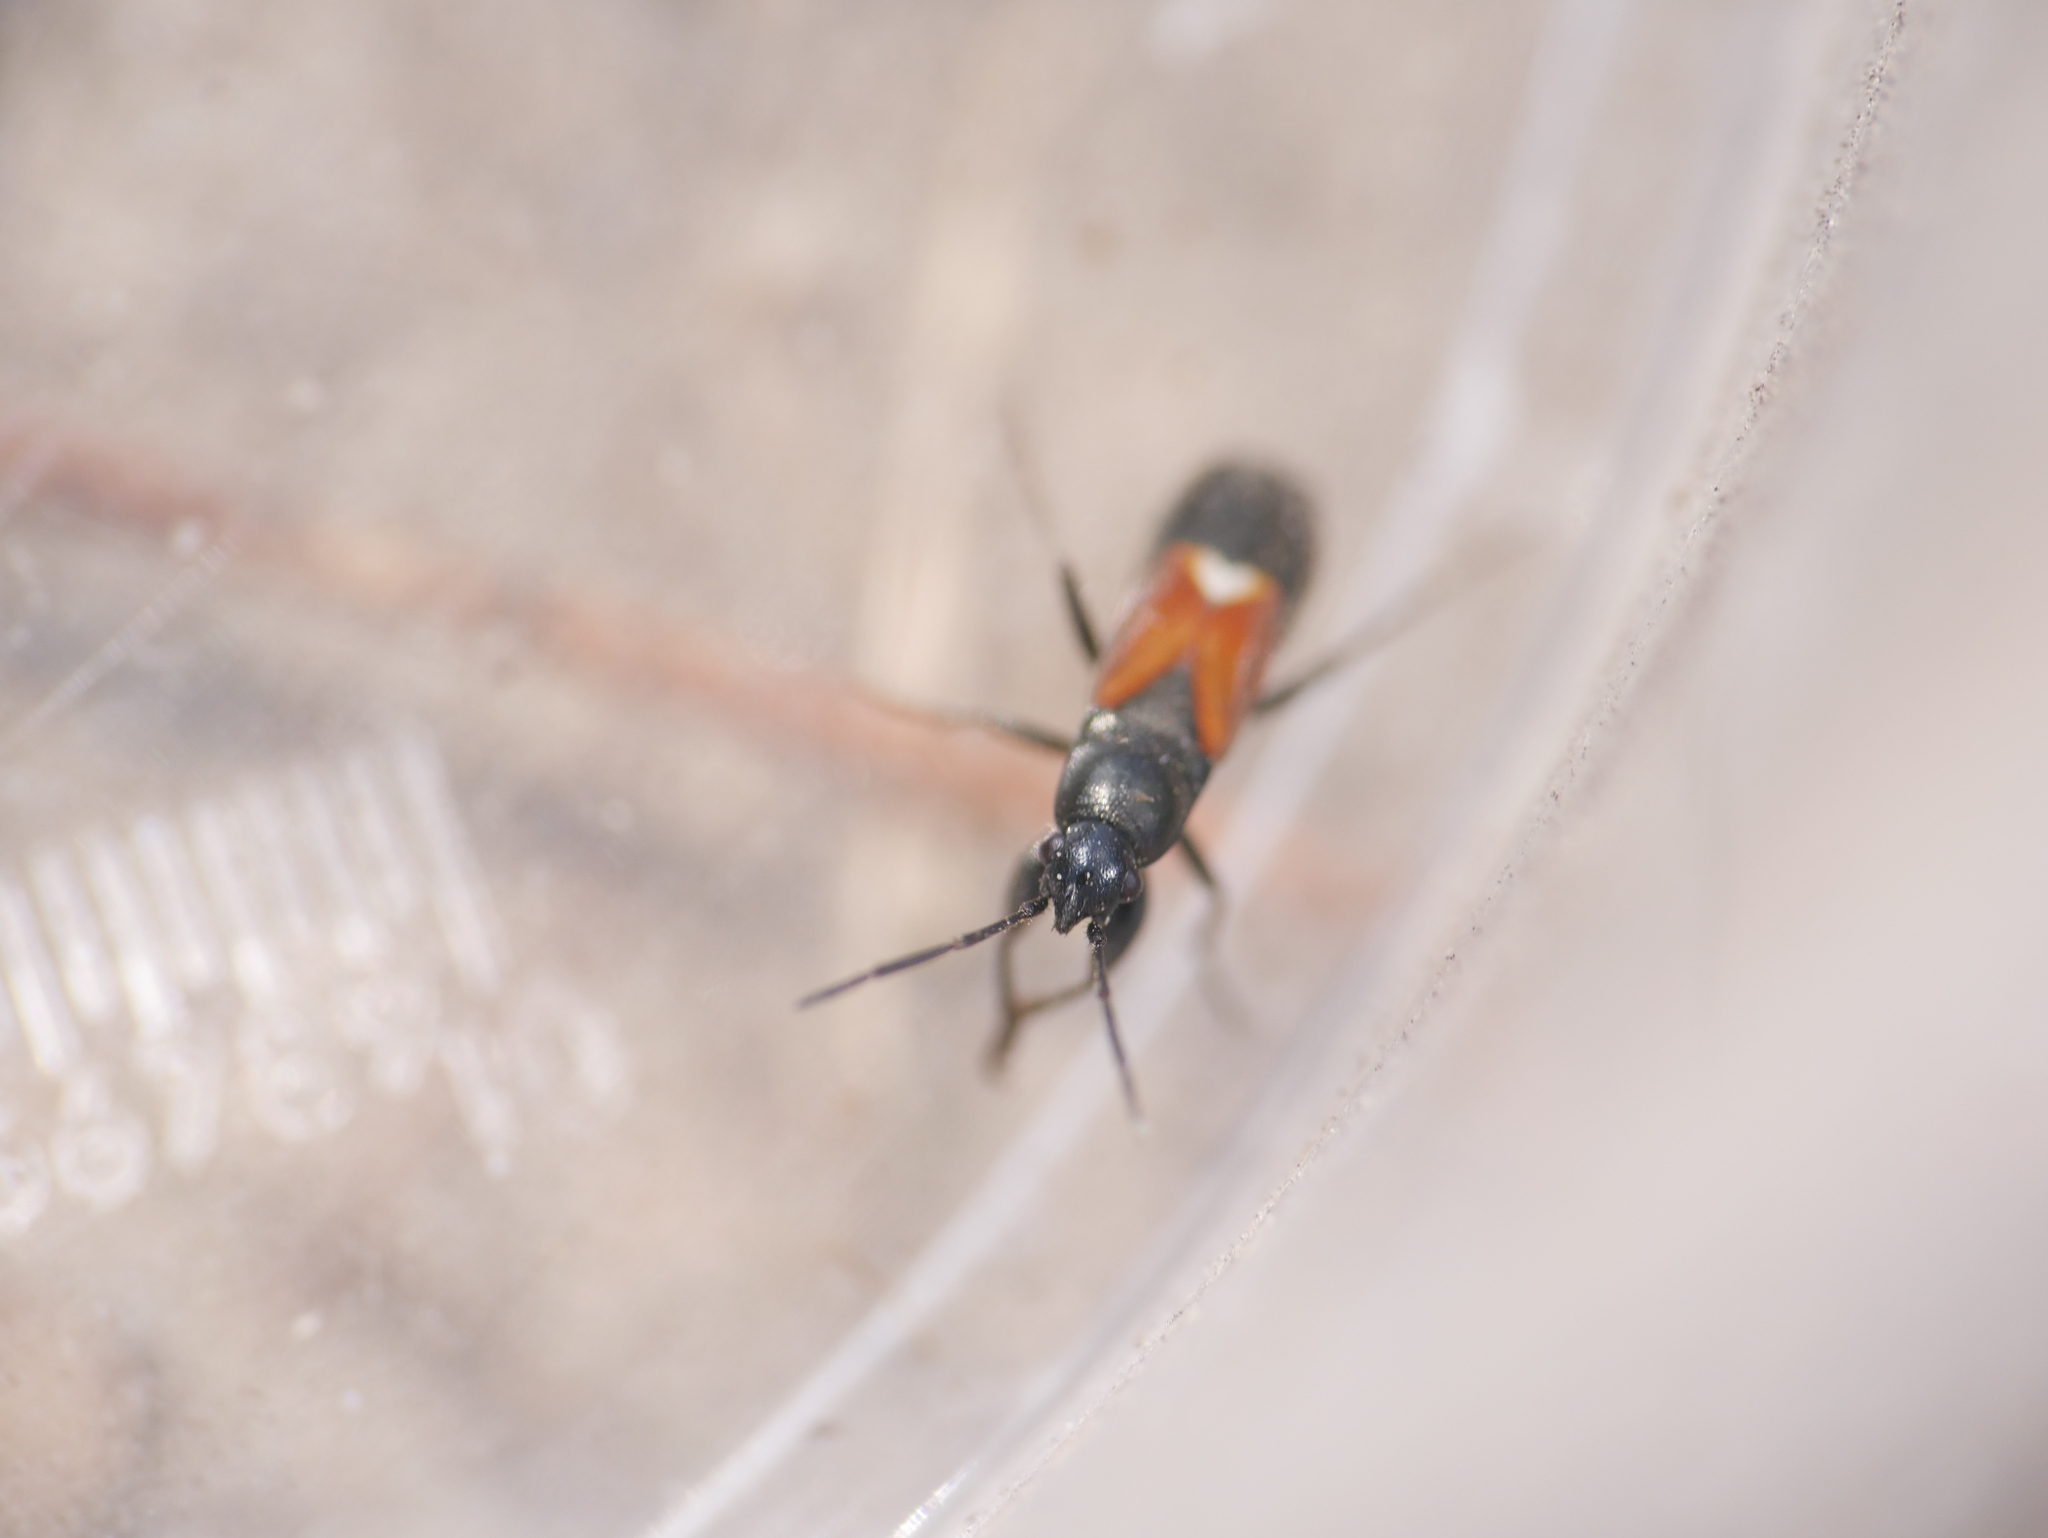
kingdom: Animalia
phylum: Arthropoda
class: Insecta
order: Hemiptera
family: Rhyparochromidae
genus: Pterotmetus
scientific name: Pterotmetus staphyliniformis
